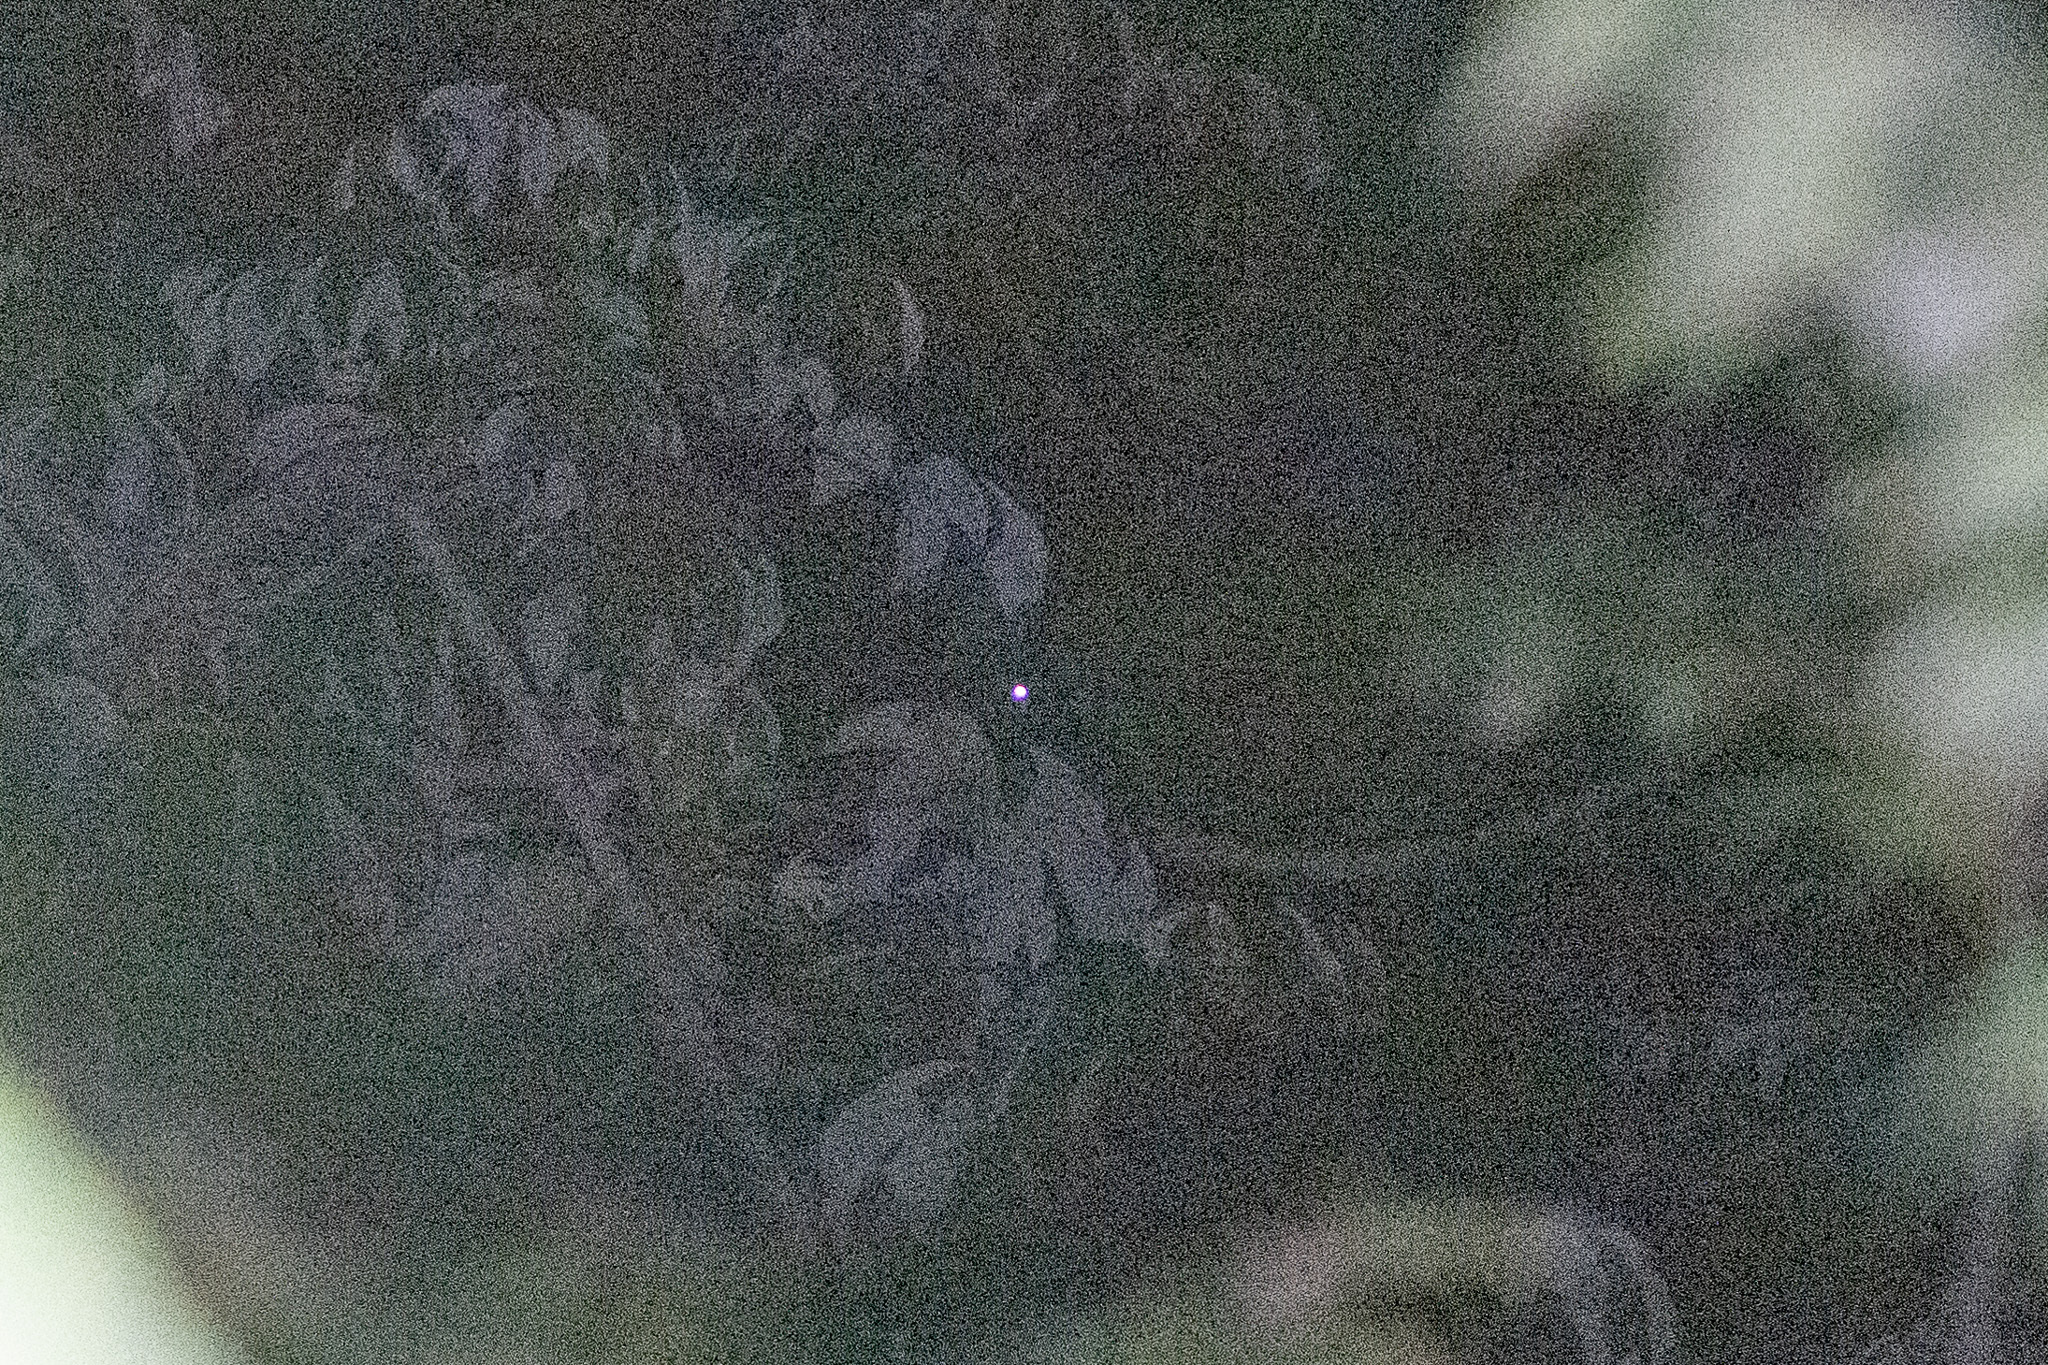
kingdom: Animalia
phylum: Chordata
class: Aves
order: Nyctibiiformes
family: Nyctibiidae
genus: Nyctibius
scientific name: Nyctibius jamaicensis
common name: Northern potoo
